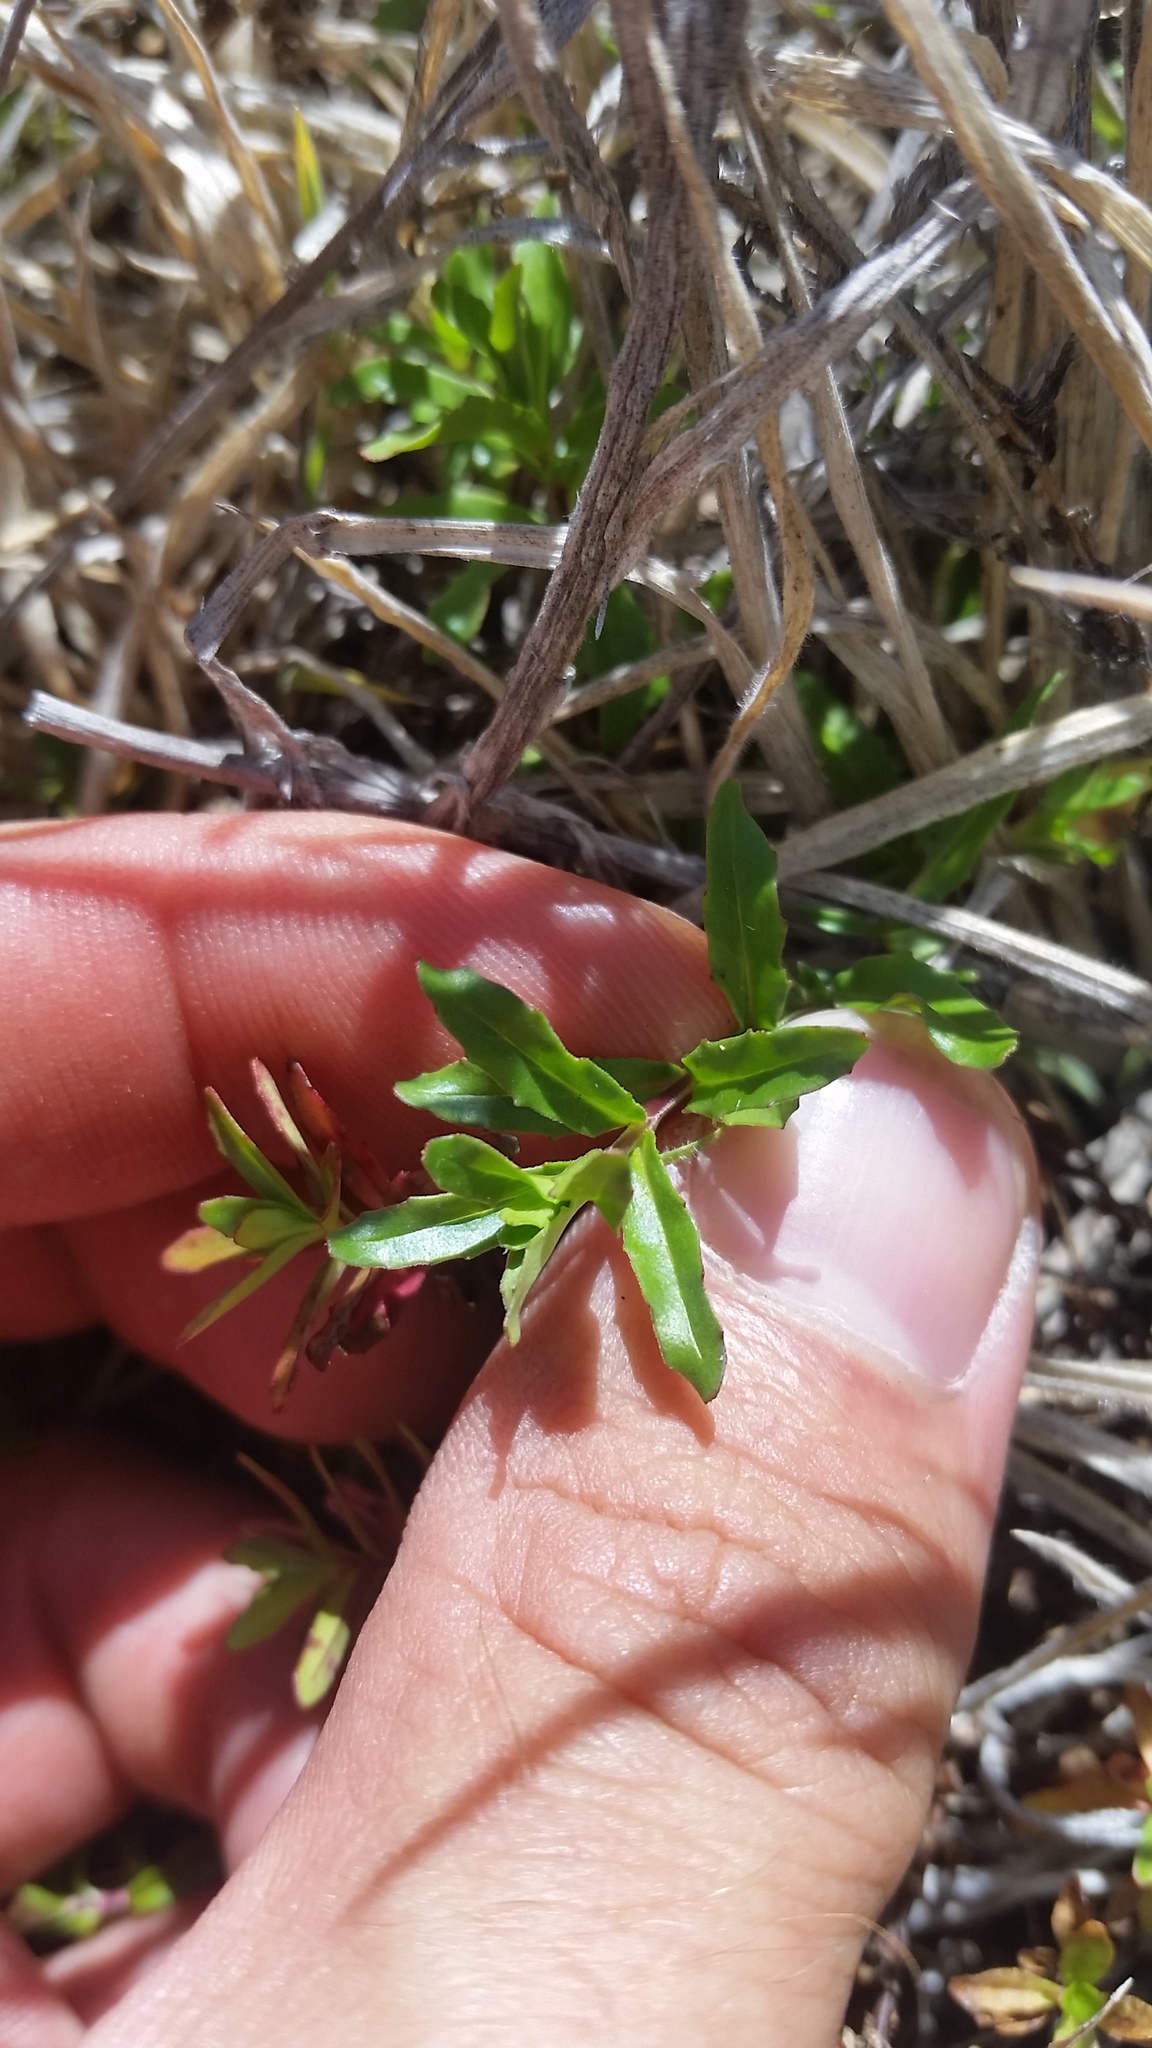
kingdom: Plantae
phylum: Tracheophyta
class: Magnoliopsida
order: Myrtales
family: Onagraceae
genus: Epilobium
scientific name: Epilobium billardiereanum
